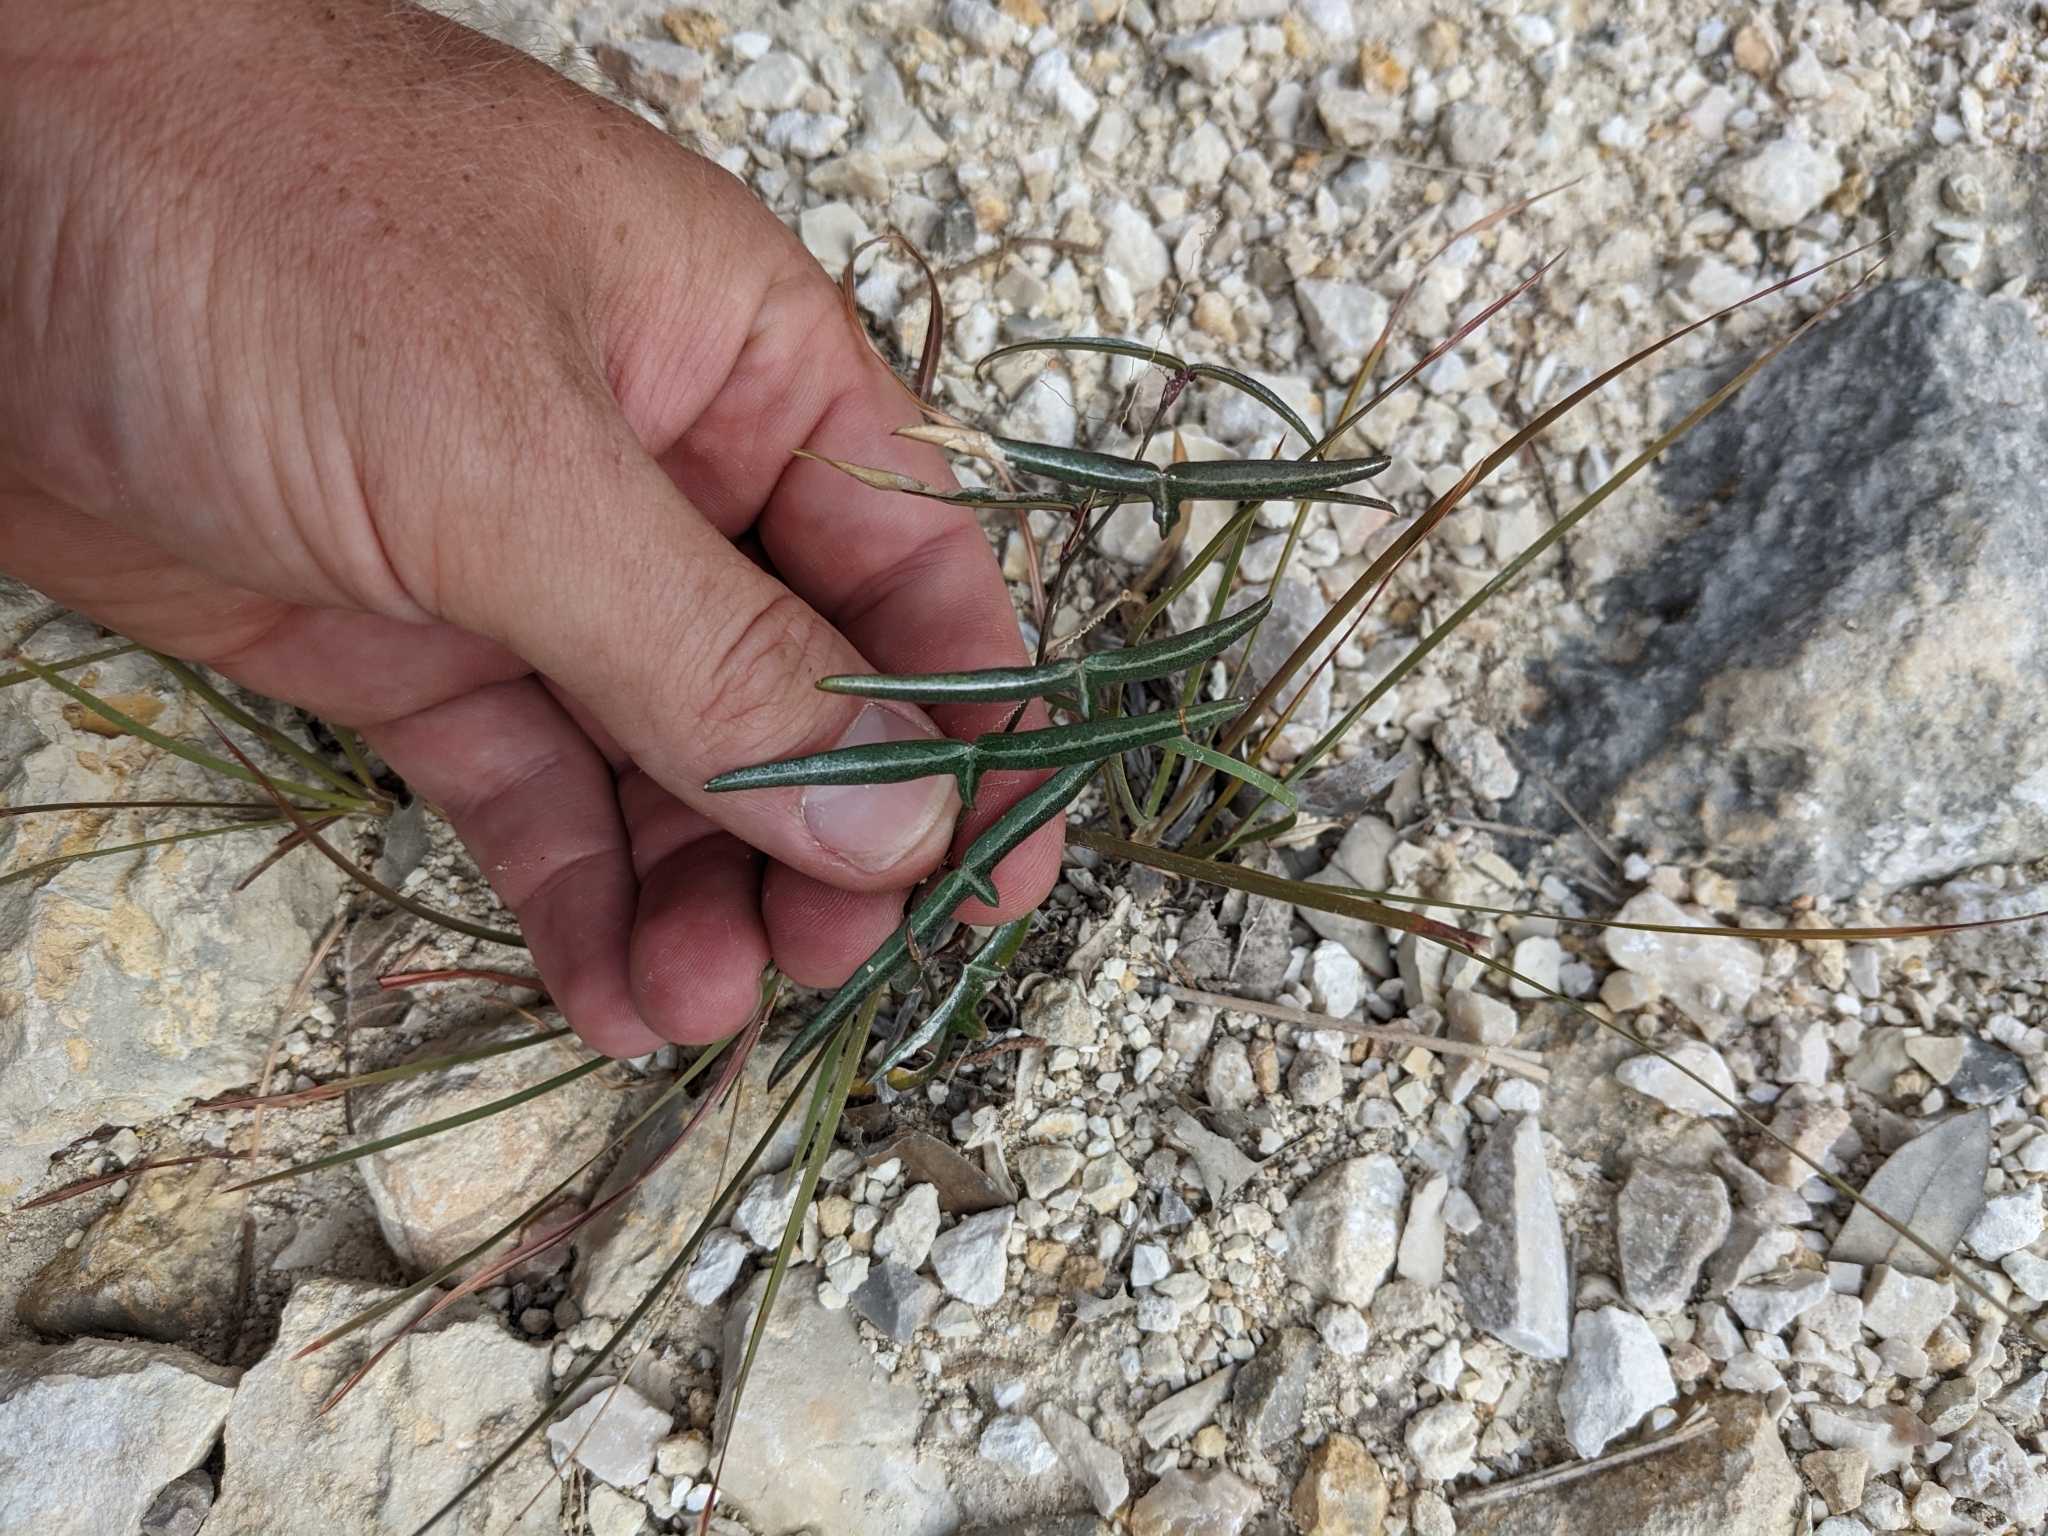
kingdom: Plantae
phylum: Tracheophyta
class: Magnoliopsida
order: Malpighiales
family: Passifloraceae
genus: Passiflora
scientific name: Passiflora tenuiloba
